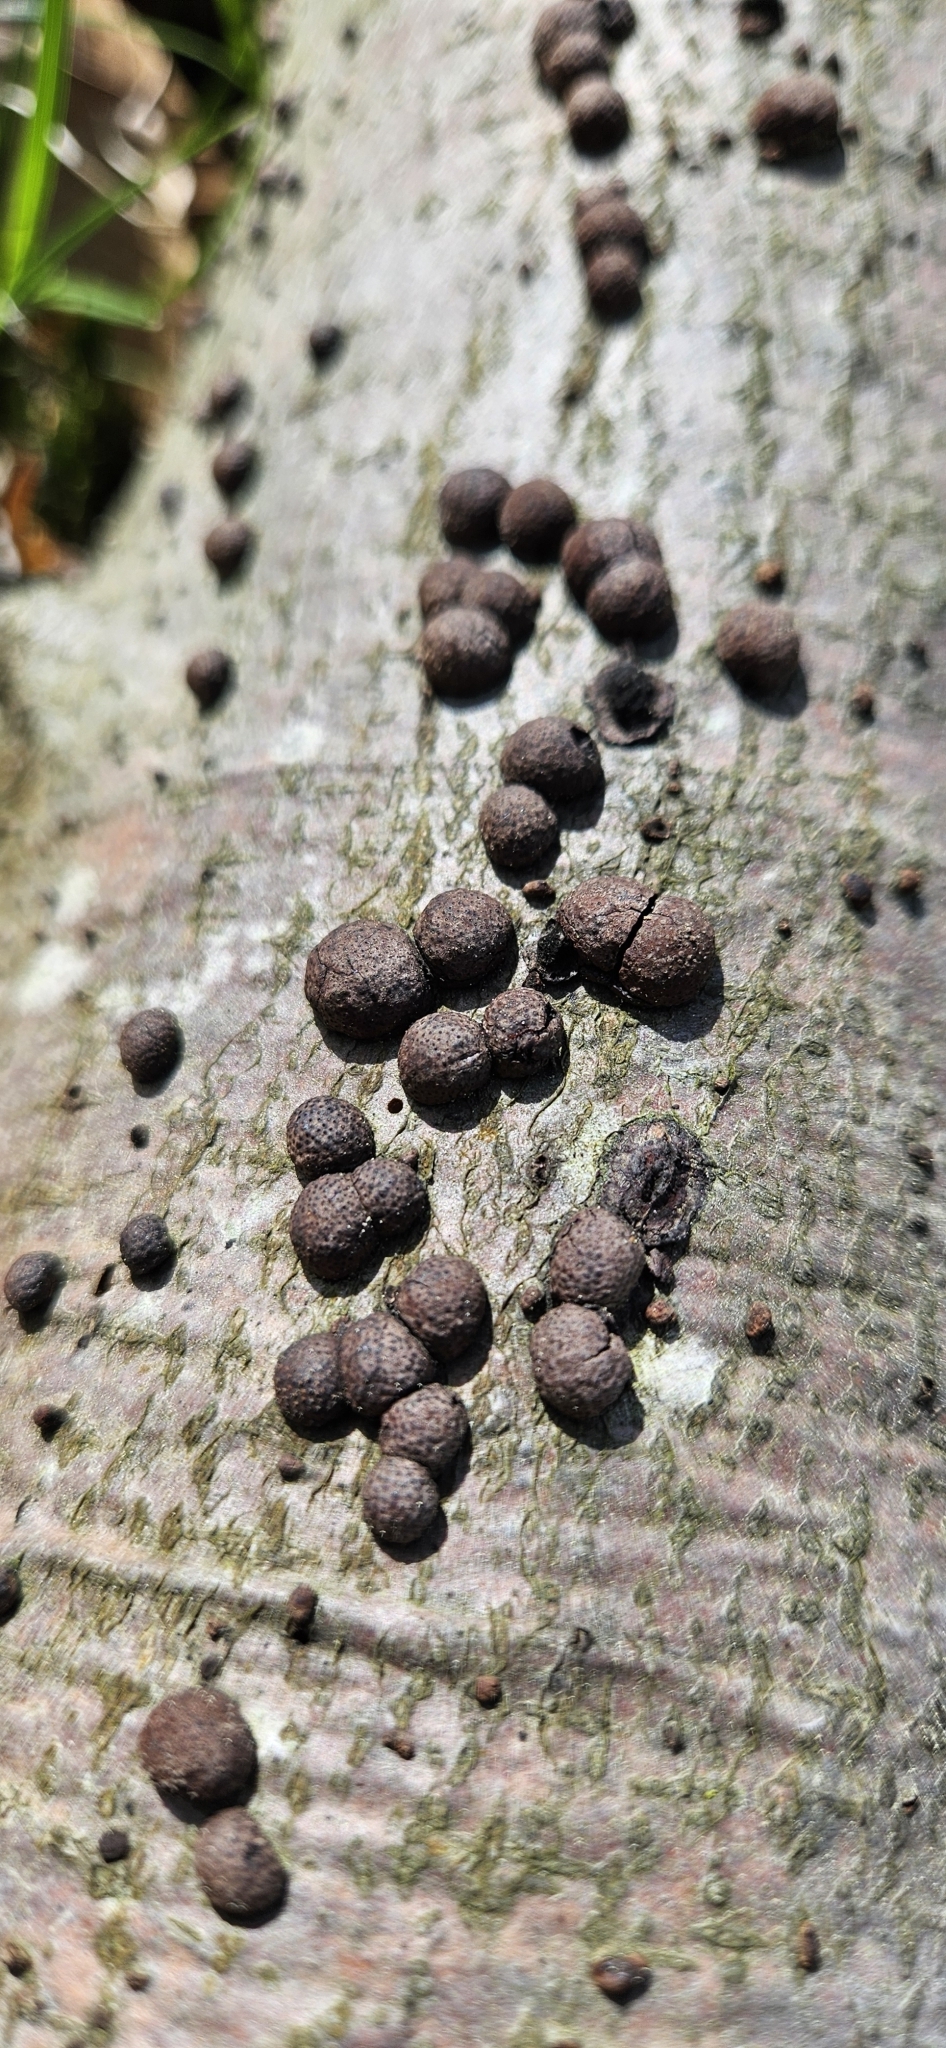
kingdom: Fungi
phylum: Ascomycota
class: Sordariomycetes
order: Xylariales
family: Hypoxylaceae
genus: Hypoxylon
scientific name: Hypoxylon fragiforme
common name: Beech woodwart
